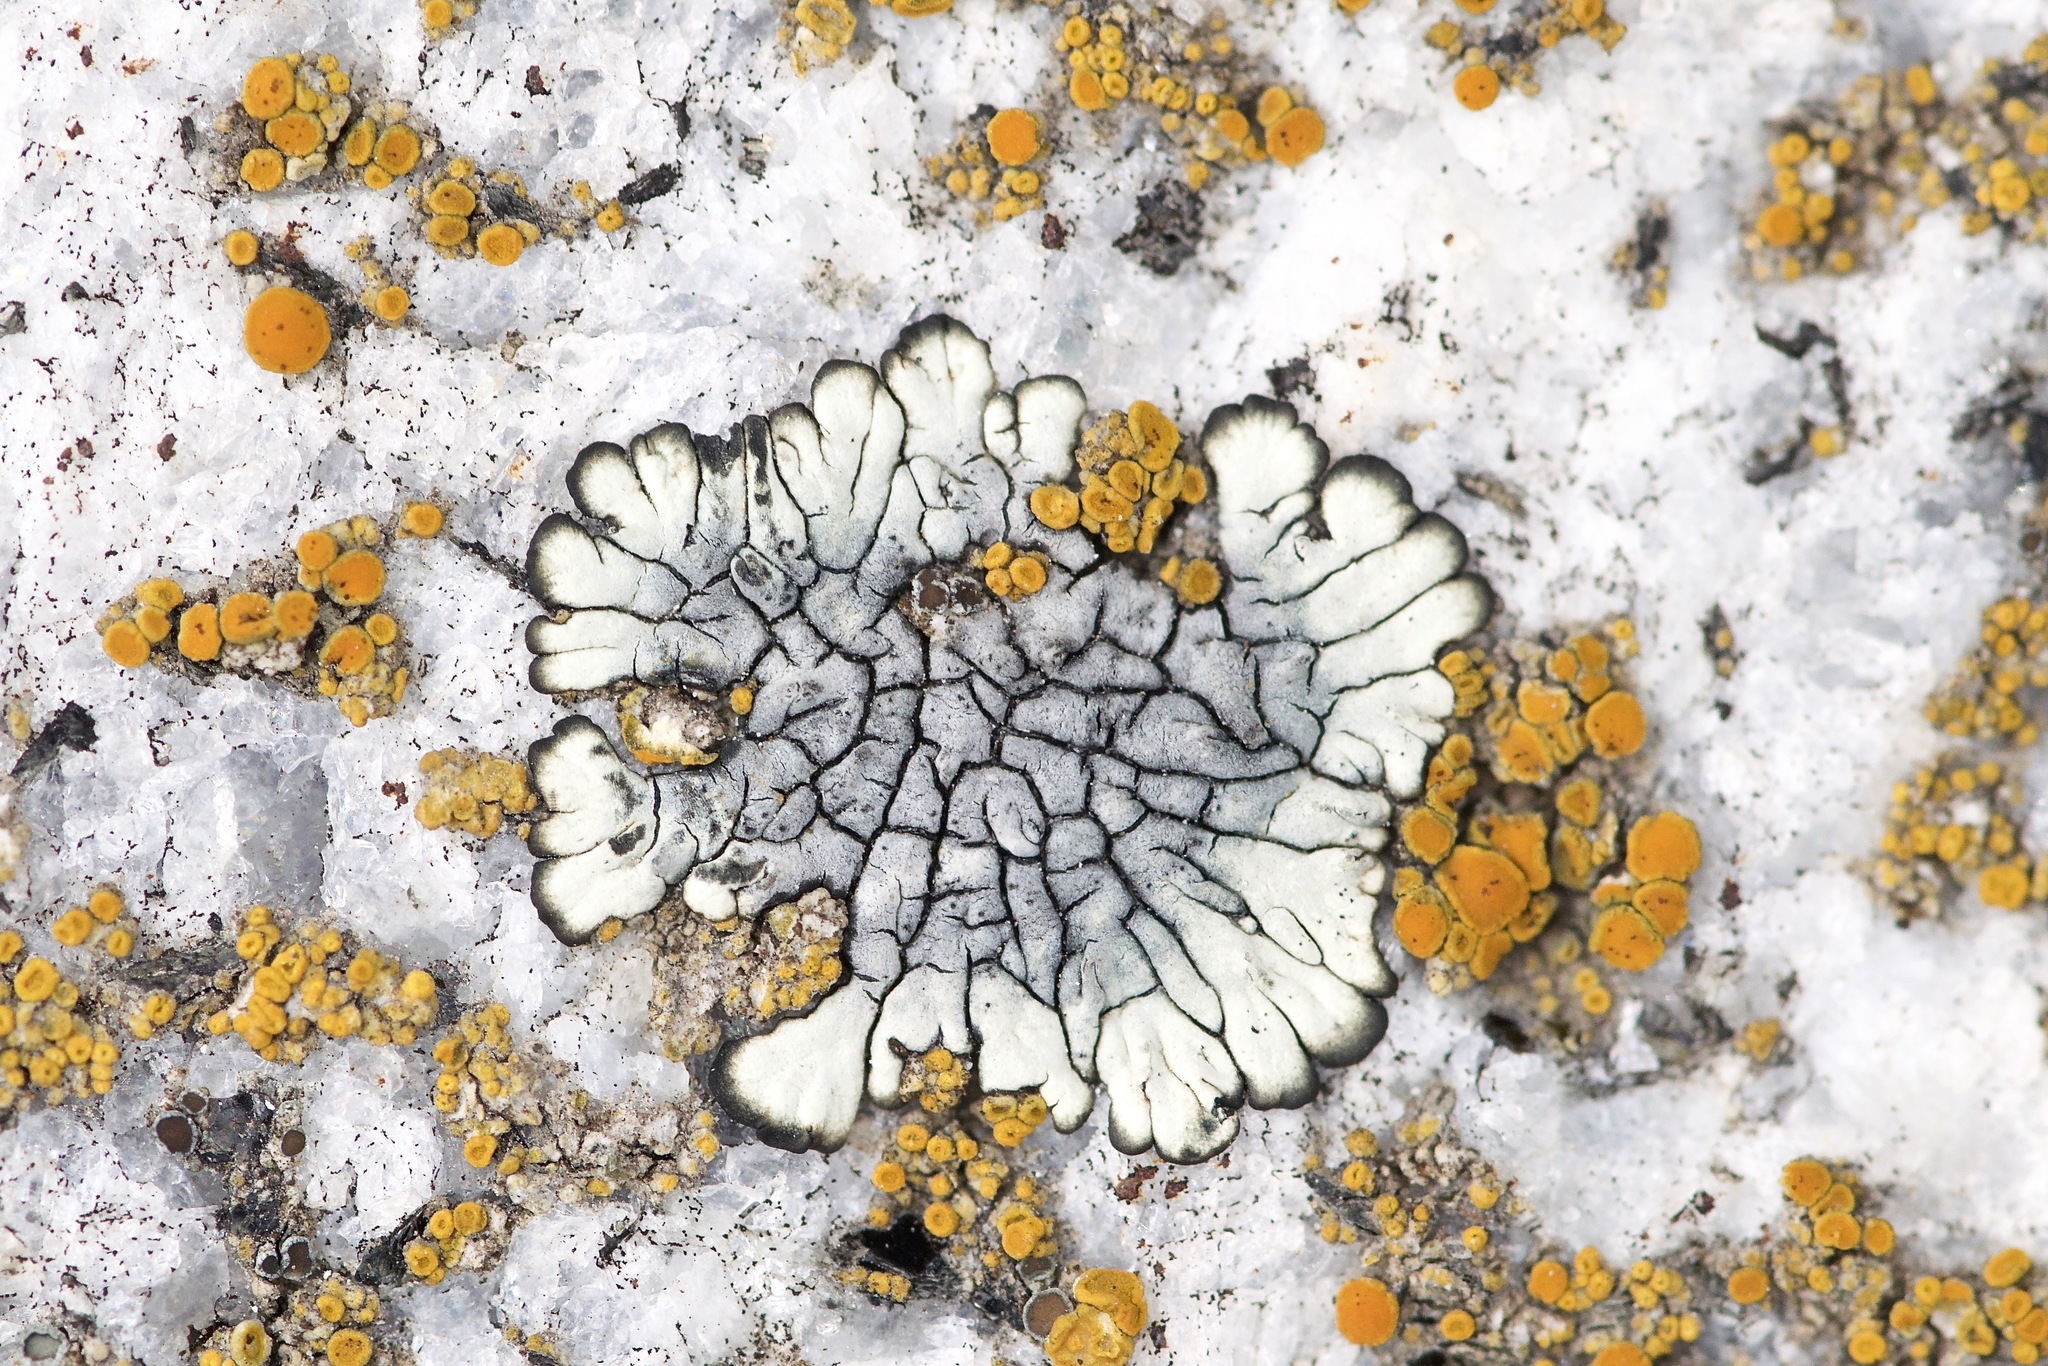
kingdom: Fungi
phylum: Ascomycota
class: Lecanoromycetes
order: Caliciales
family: Caliciaceae
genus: Dimelaena
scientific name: Dimelaena oreina
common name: Golden moonglow lichen
